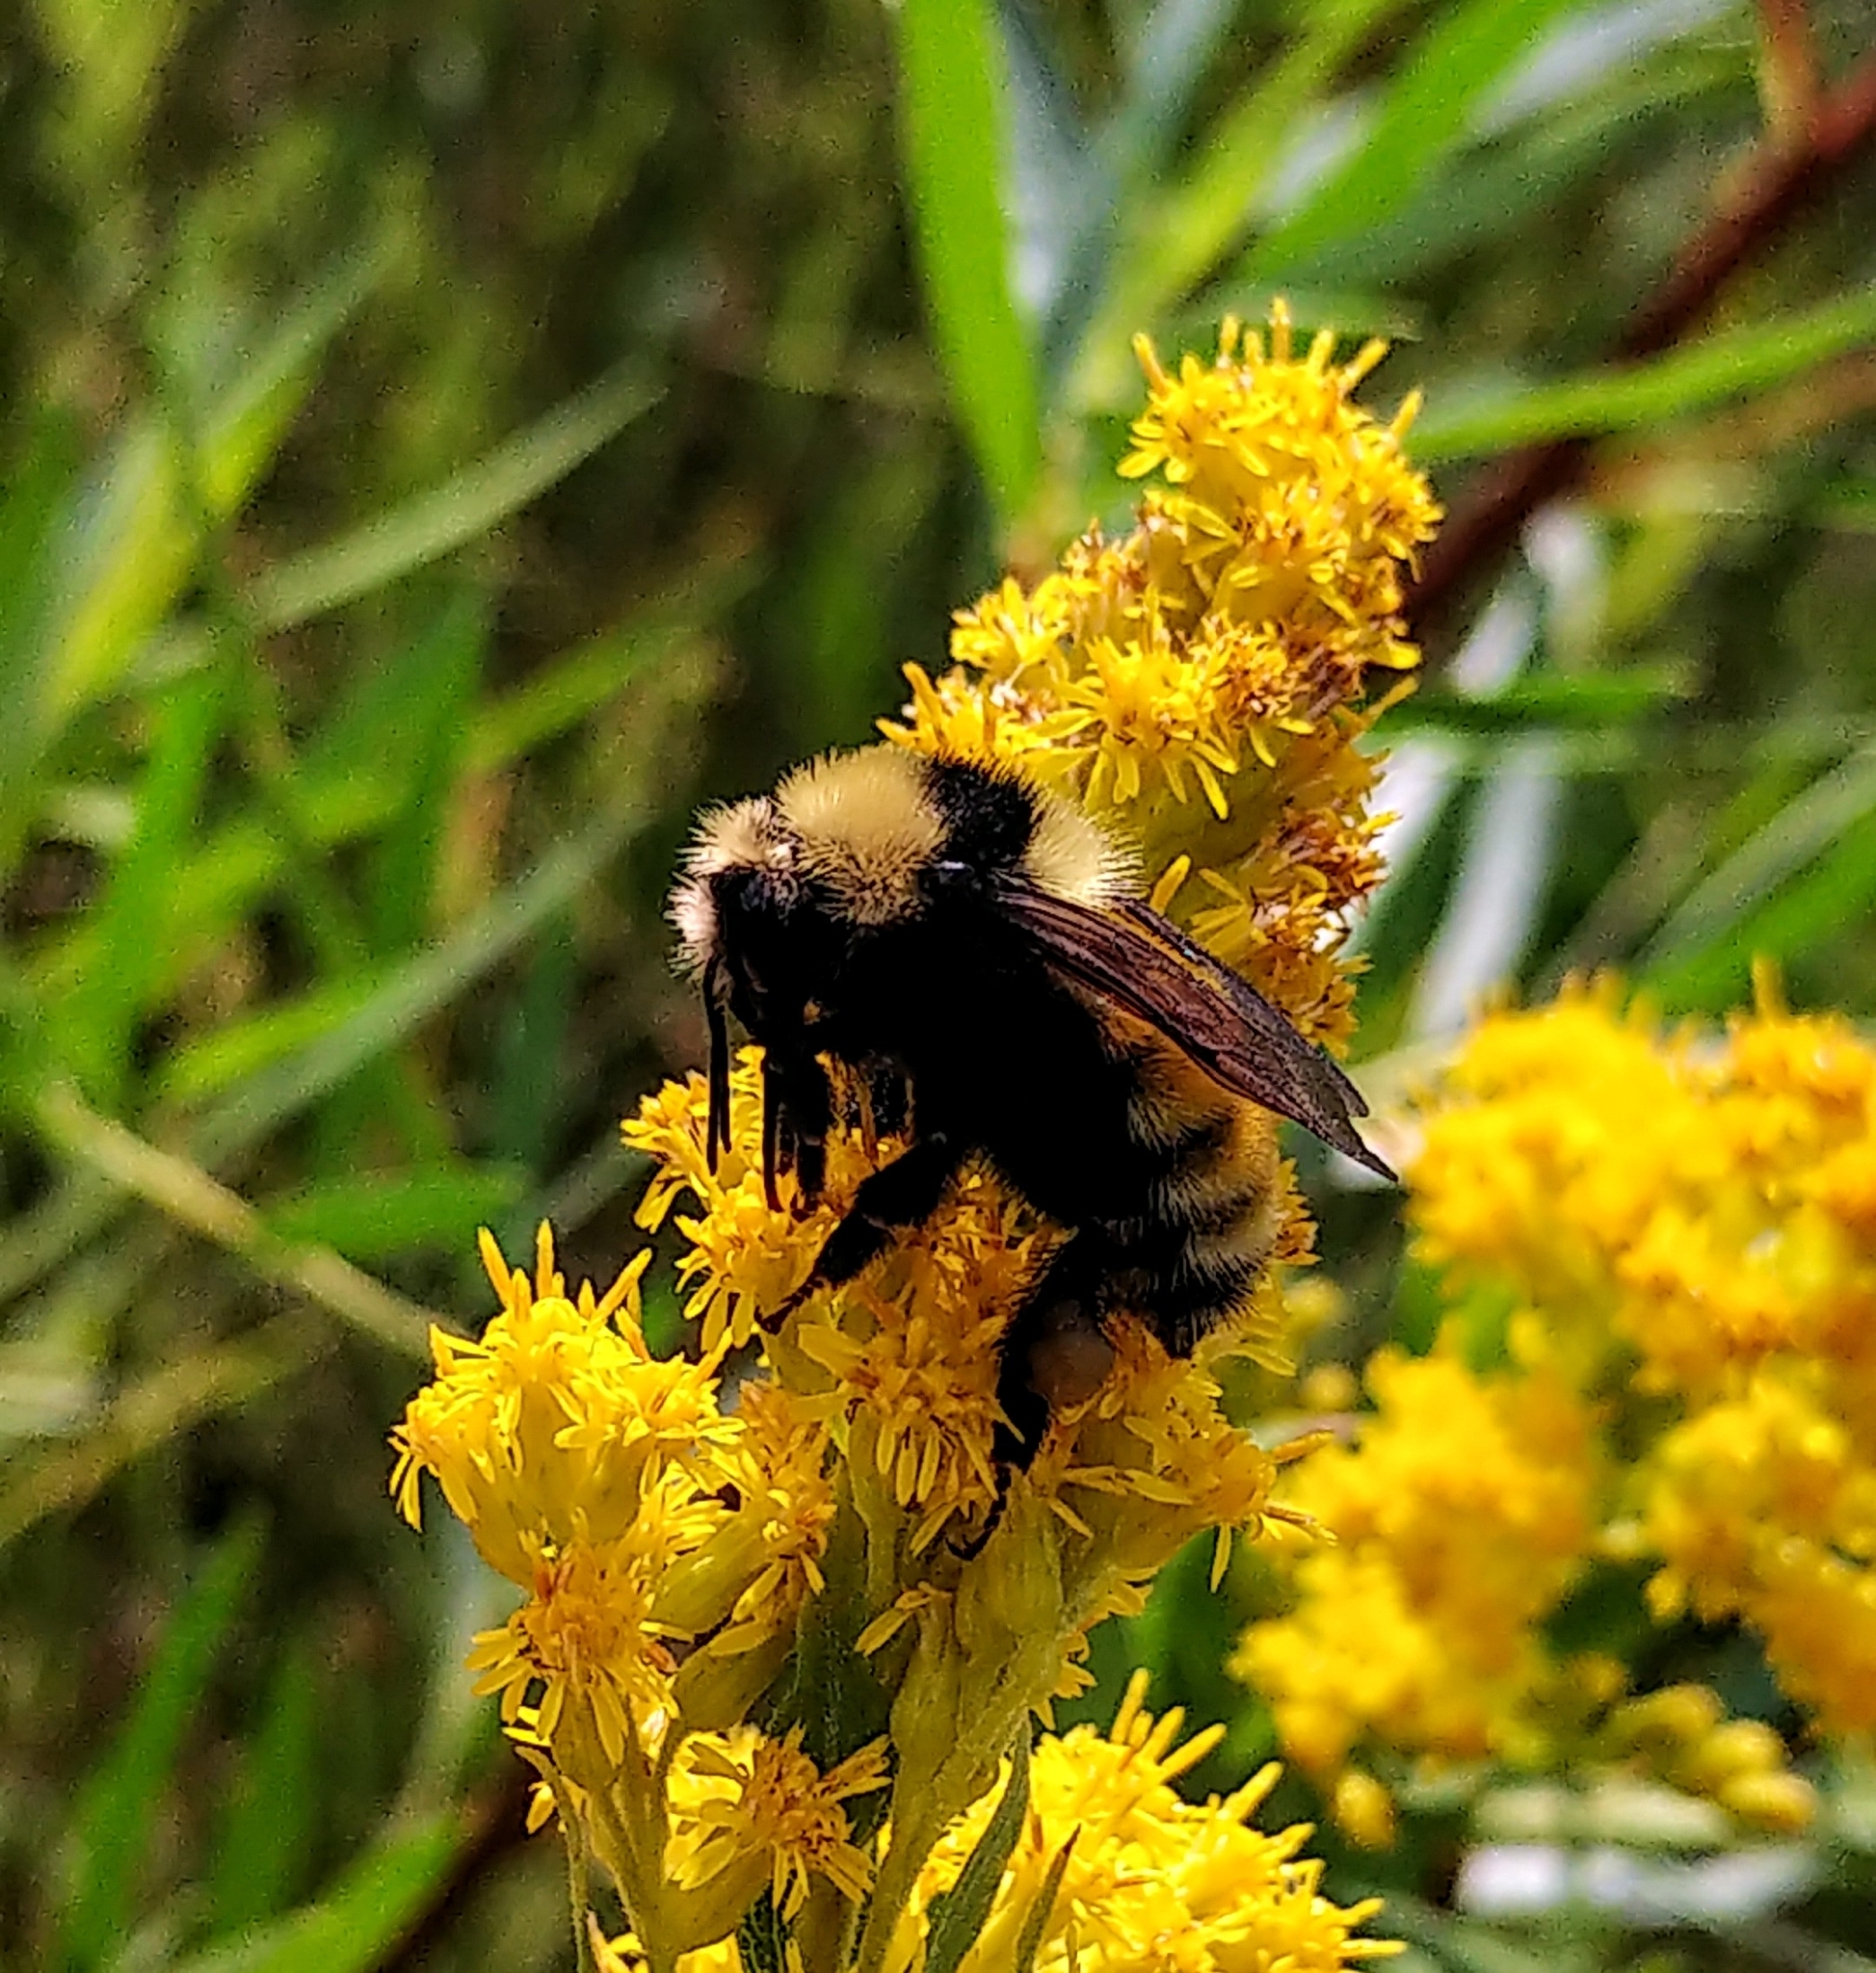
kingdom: Animalia
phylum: Arthropoda
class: Insecta
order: Hymenoptera
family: Apidae
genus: Bombus
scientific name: Bombus borealis
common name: Northern amber bumble bee
